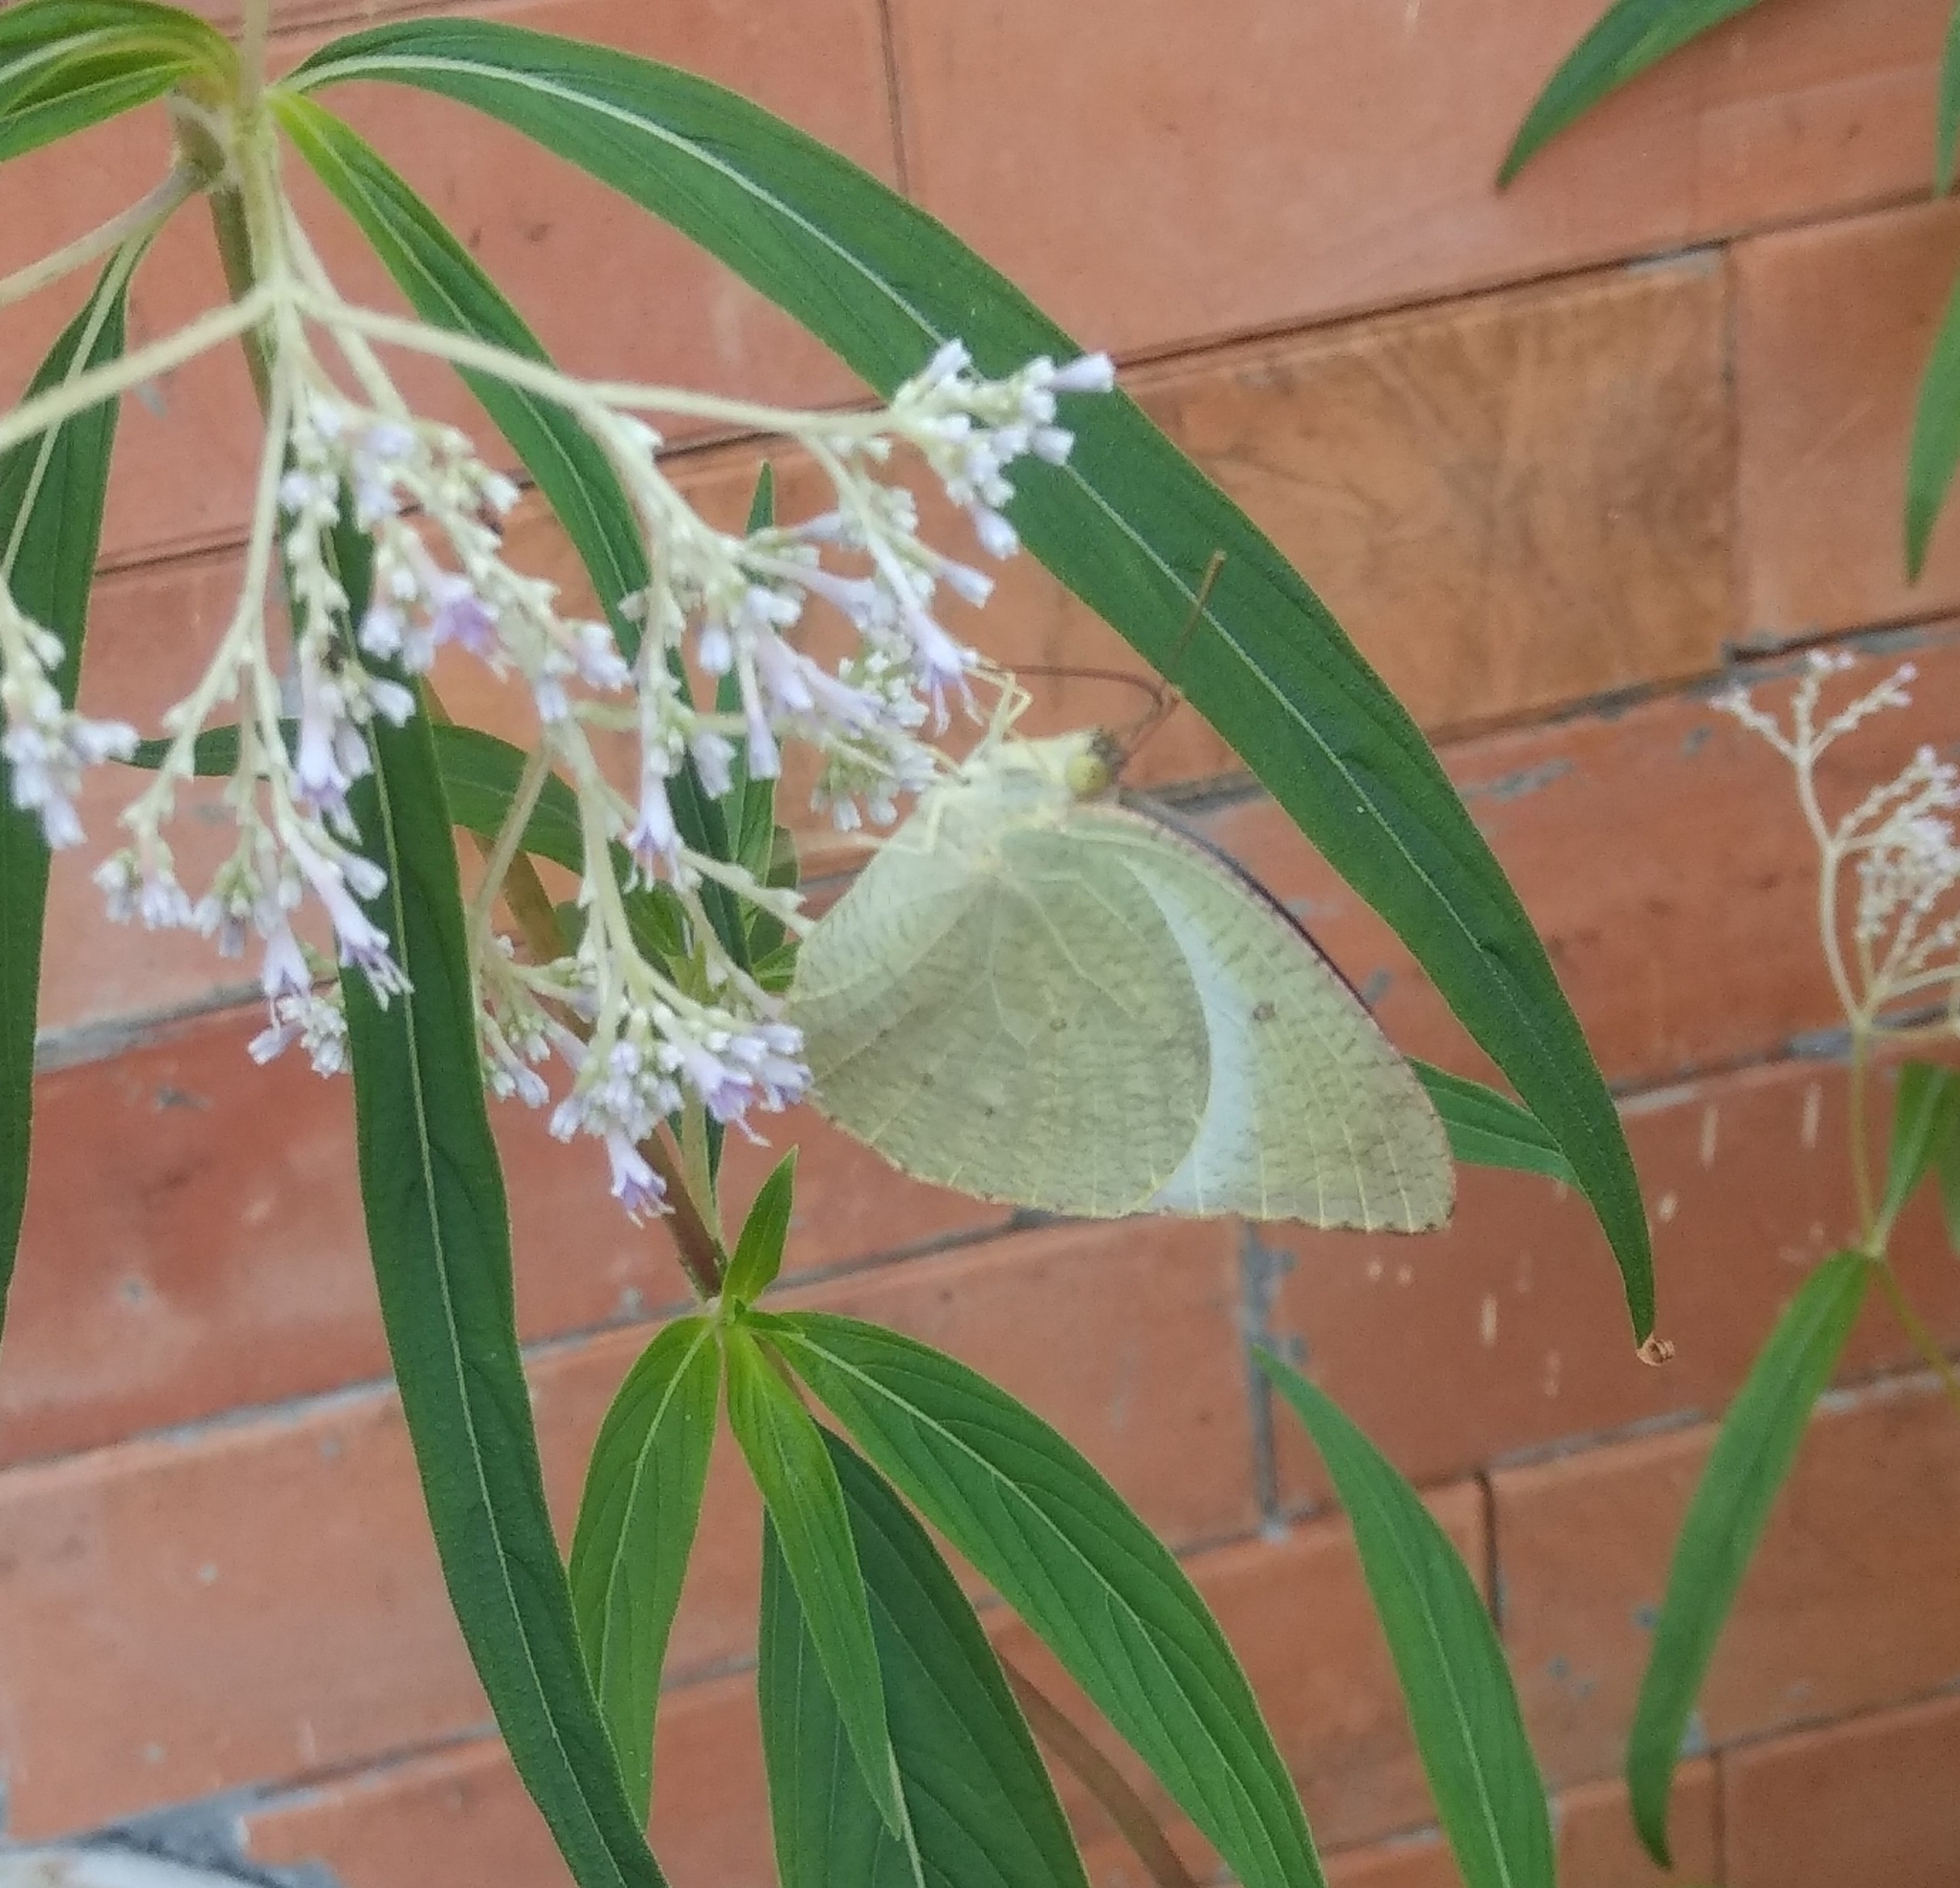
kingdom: Animalia
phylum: Arthropoda
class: Insecta
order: Lepidoptera
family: Pieridae
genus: Catopsilia
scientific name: Catopsilia pyranthe
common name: Mottled emigrant
